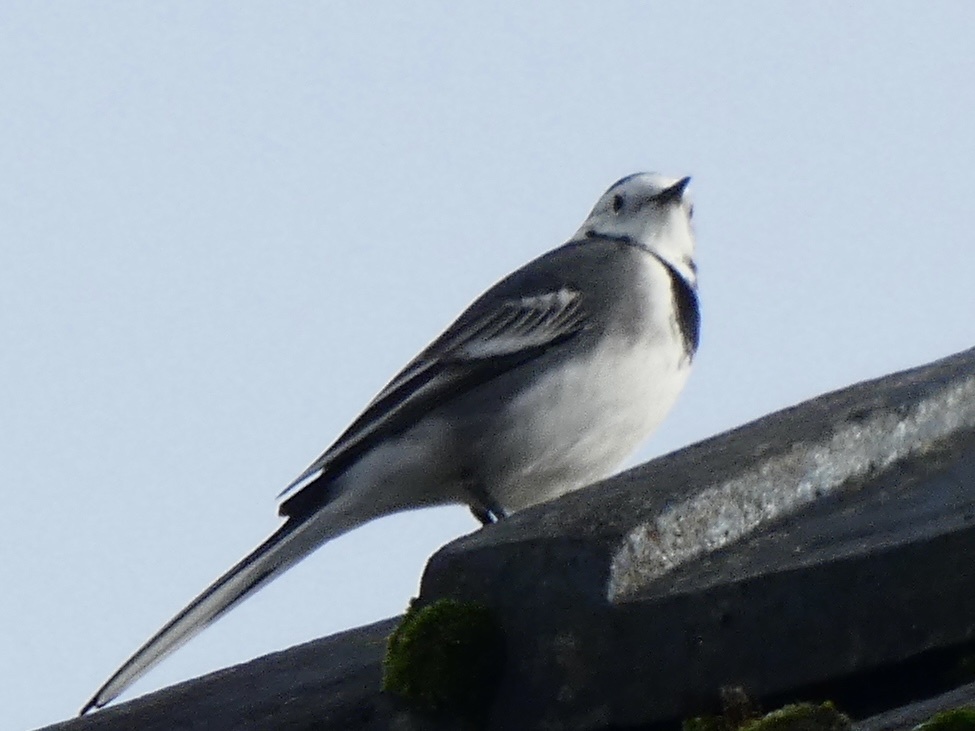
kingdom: Animalia
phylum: Chordata
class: Aves
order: Passeriformes
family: Motacillidae
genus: Motacilla
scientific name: Motacilla alba
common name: White wagtail
